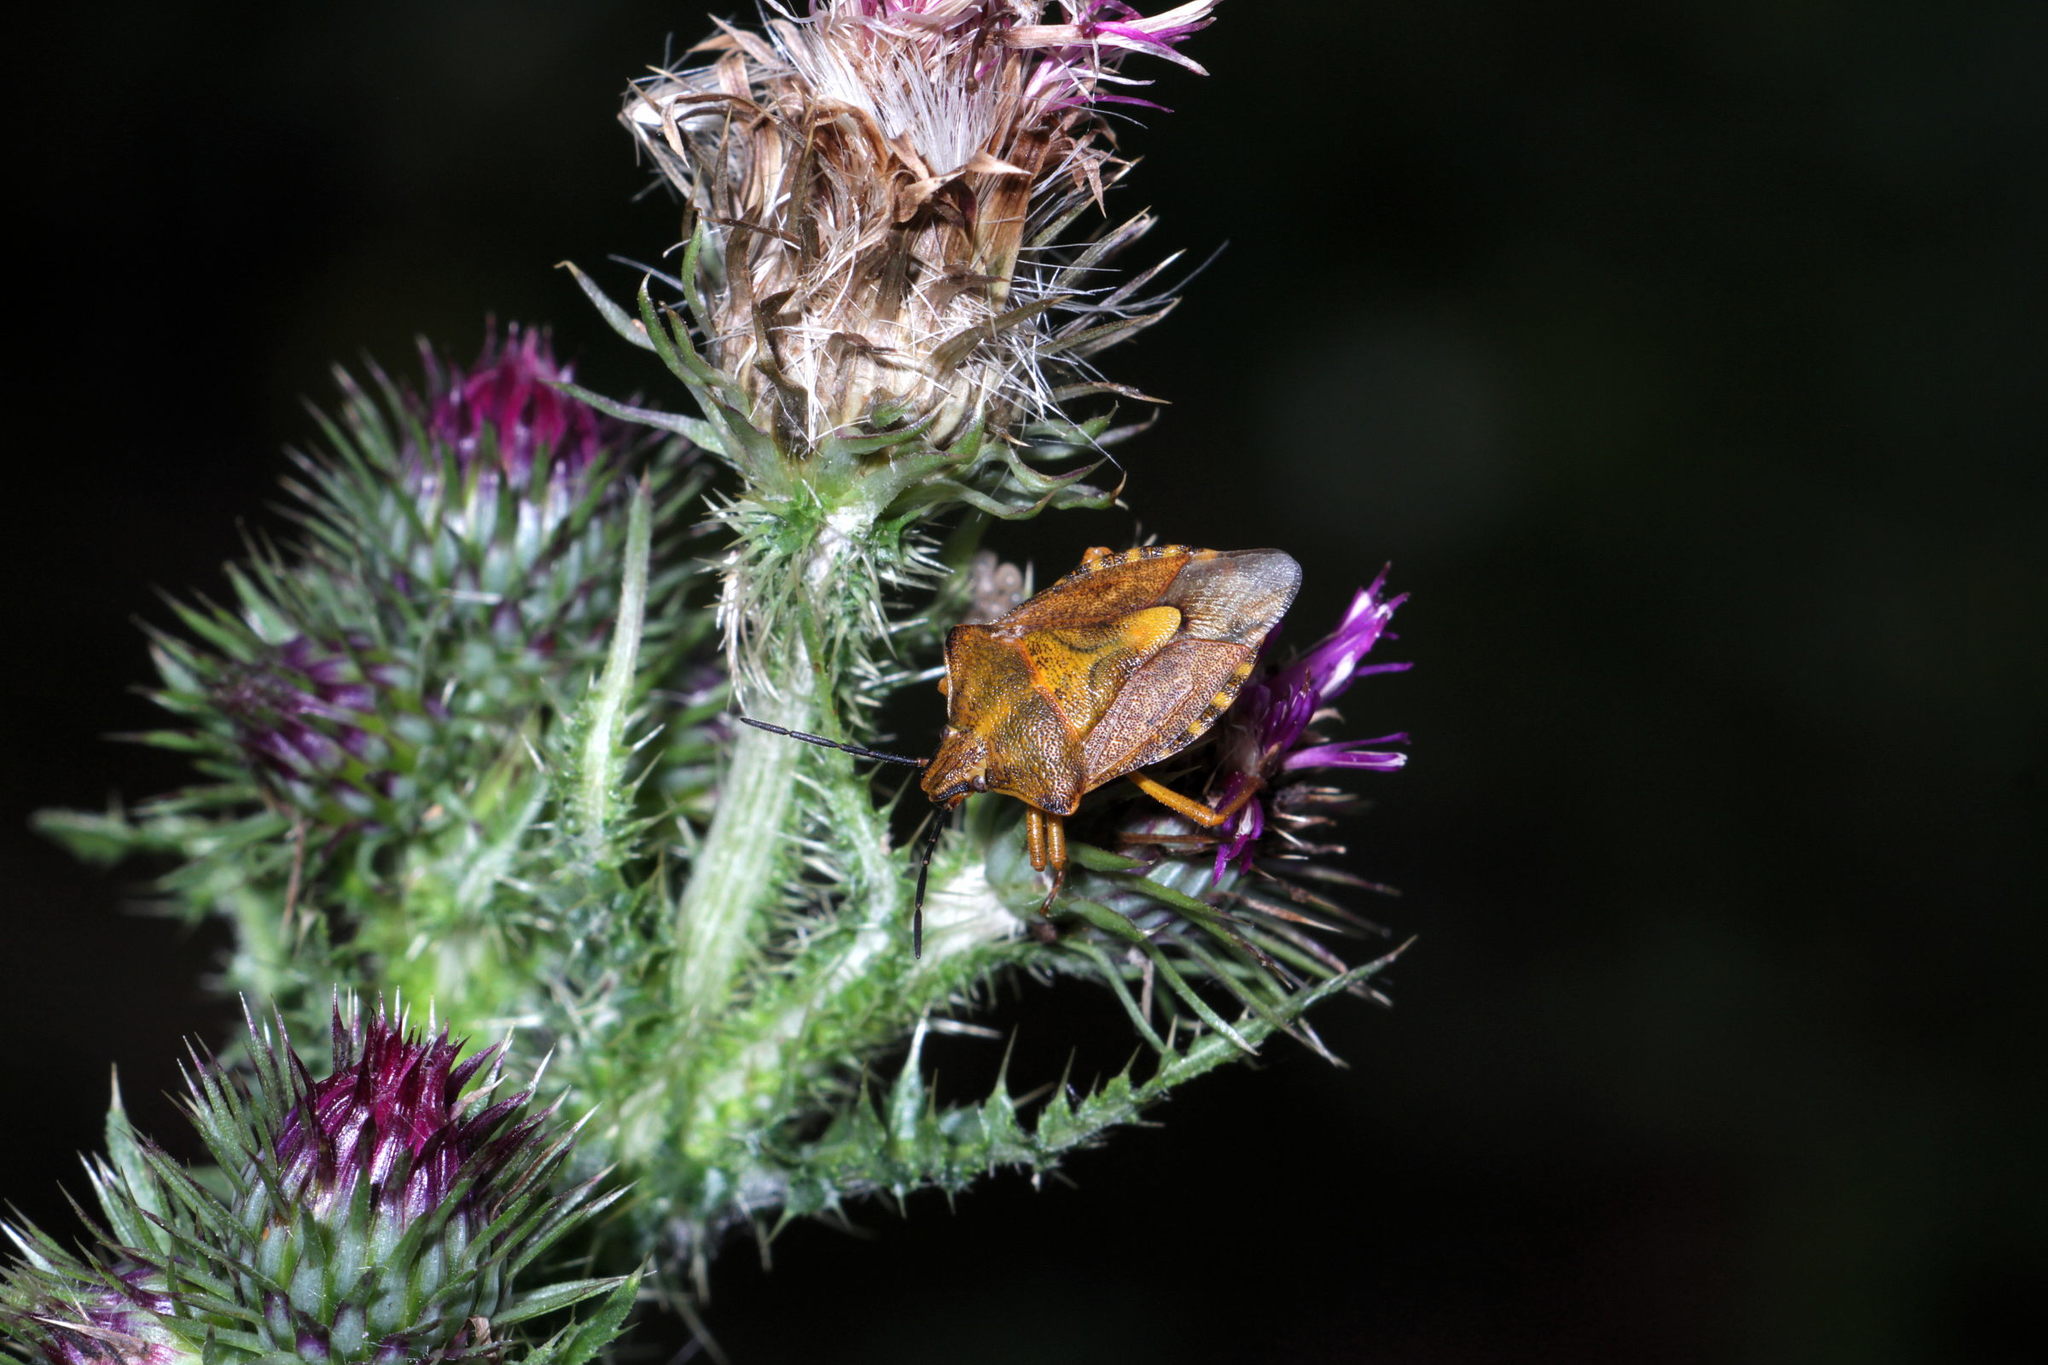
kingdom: Animalia
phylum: Arthropoda
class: Insecta
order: Hemiptera
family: Pentatomidae
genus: Carpocoris
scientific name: Carpocoris purpureipennis
